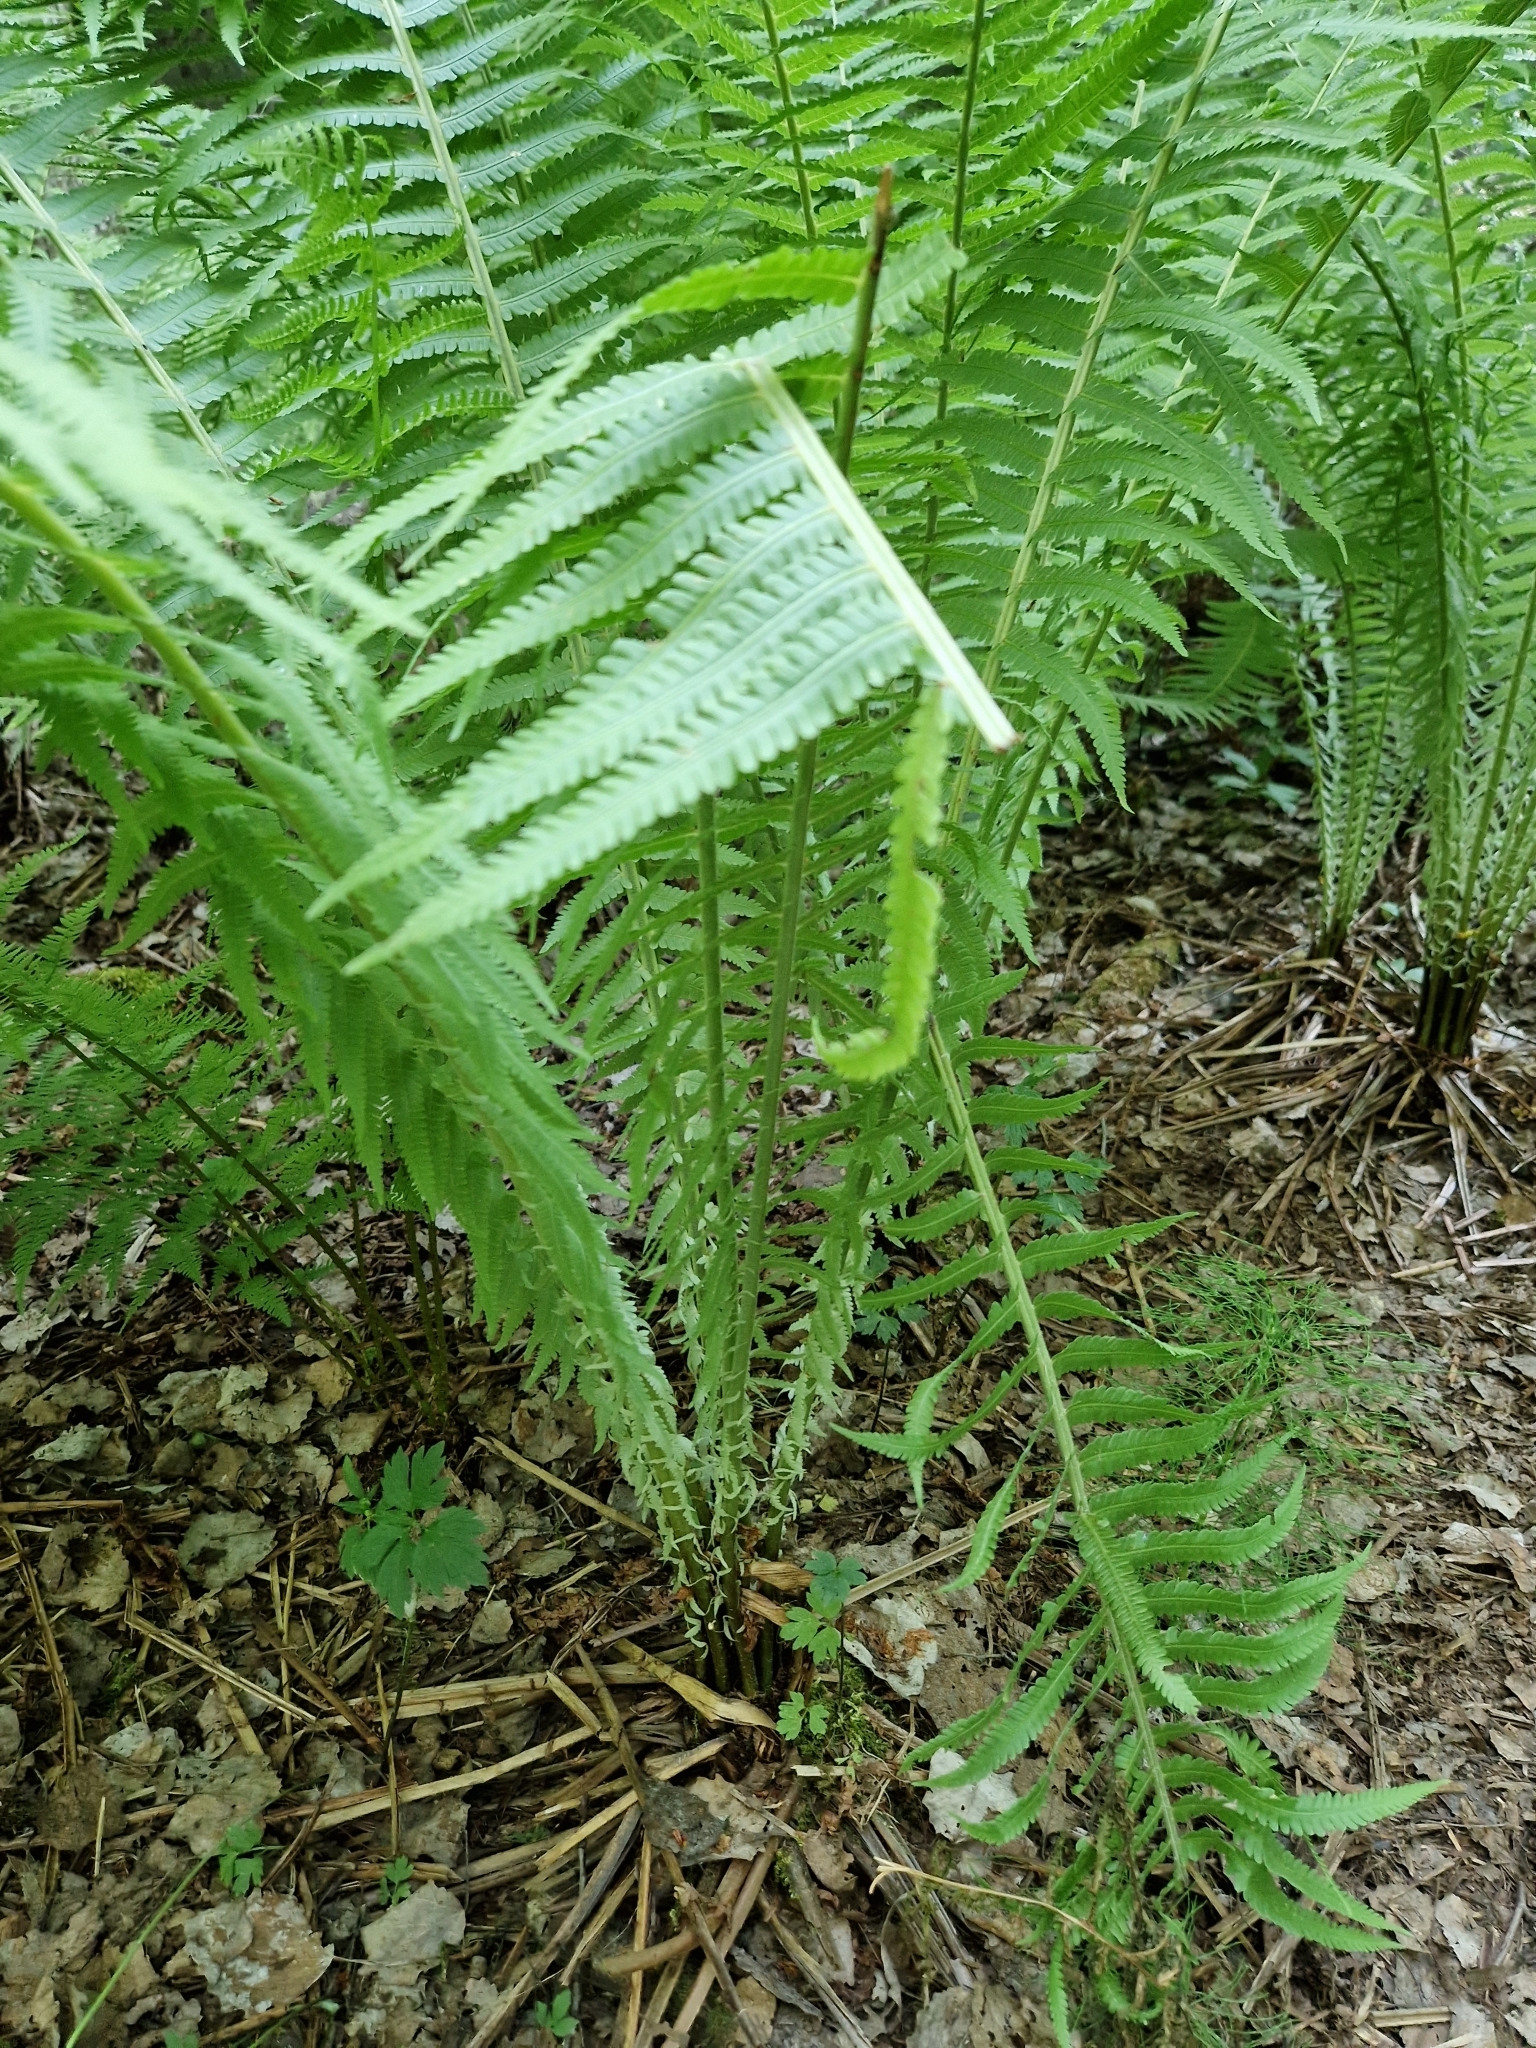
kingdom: Plantae
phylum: Tracheophyta
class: Polypodiopsida
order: Polypodiales
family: Onocleaceae
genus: Matteuccia
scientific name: Matteuccia struthiopteris
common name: Ostrich fern
